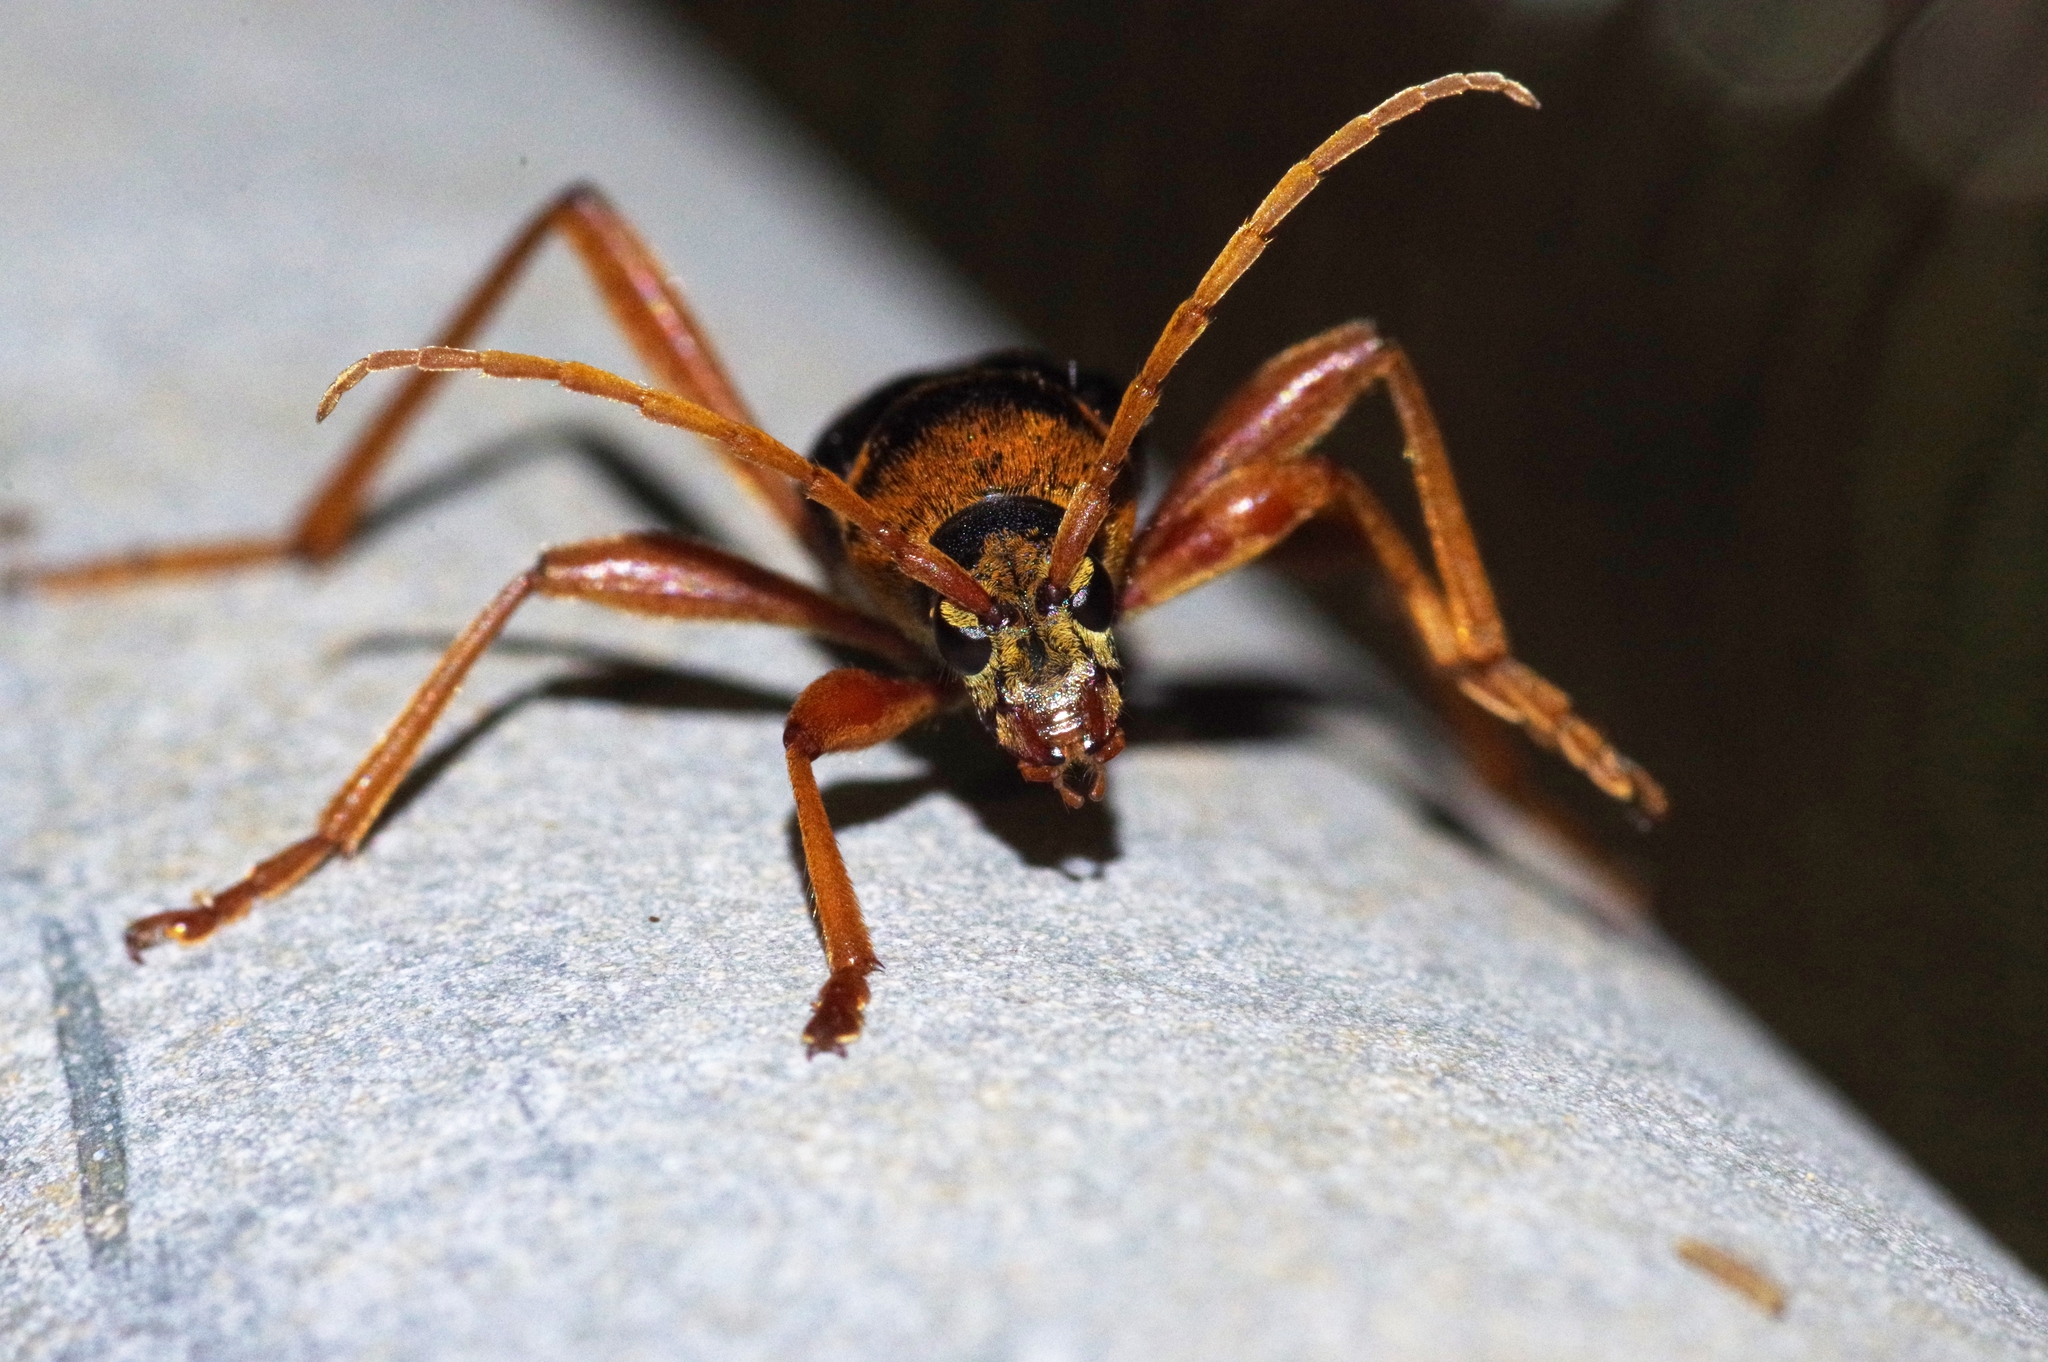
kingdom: Animalia
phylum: Arthropoda
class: Insecta
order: Coleoptera
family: Cerambycidae
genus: Chlorophorus
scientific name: Chlorophorus quinquefasciatus
